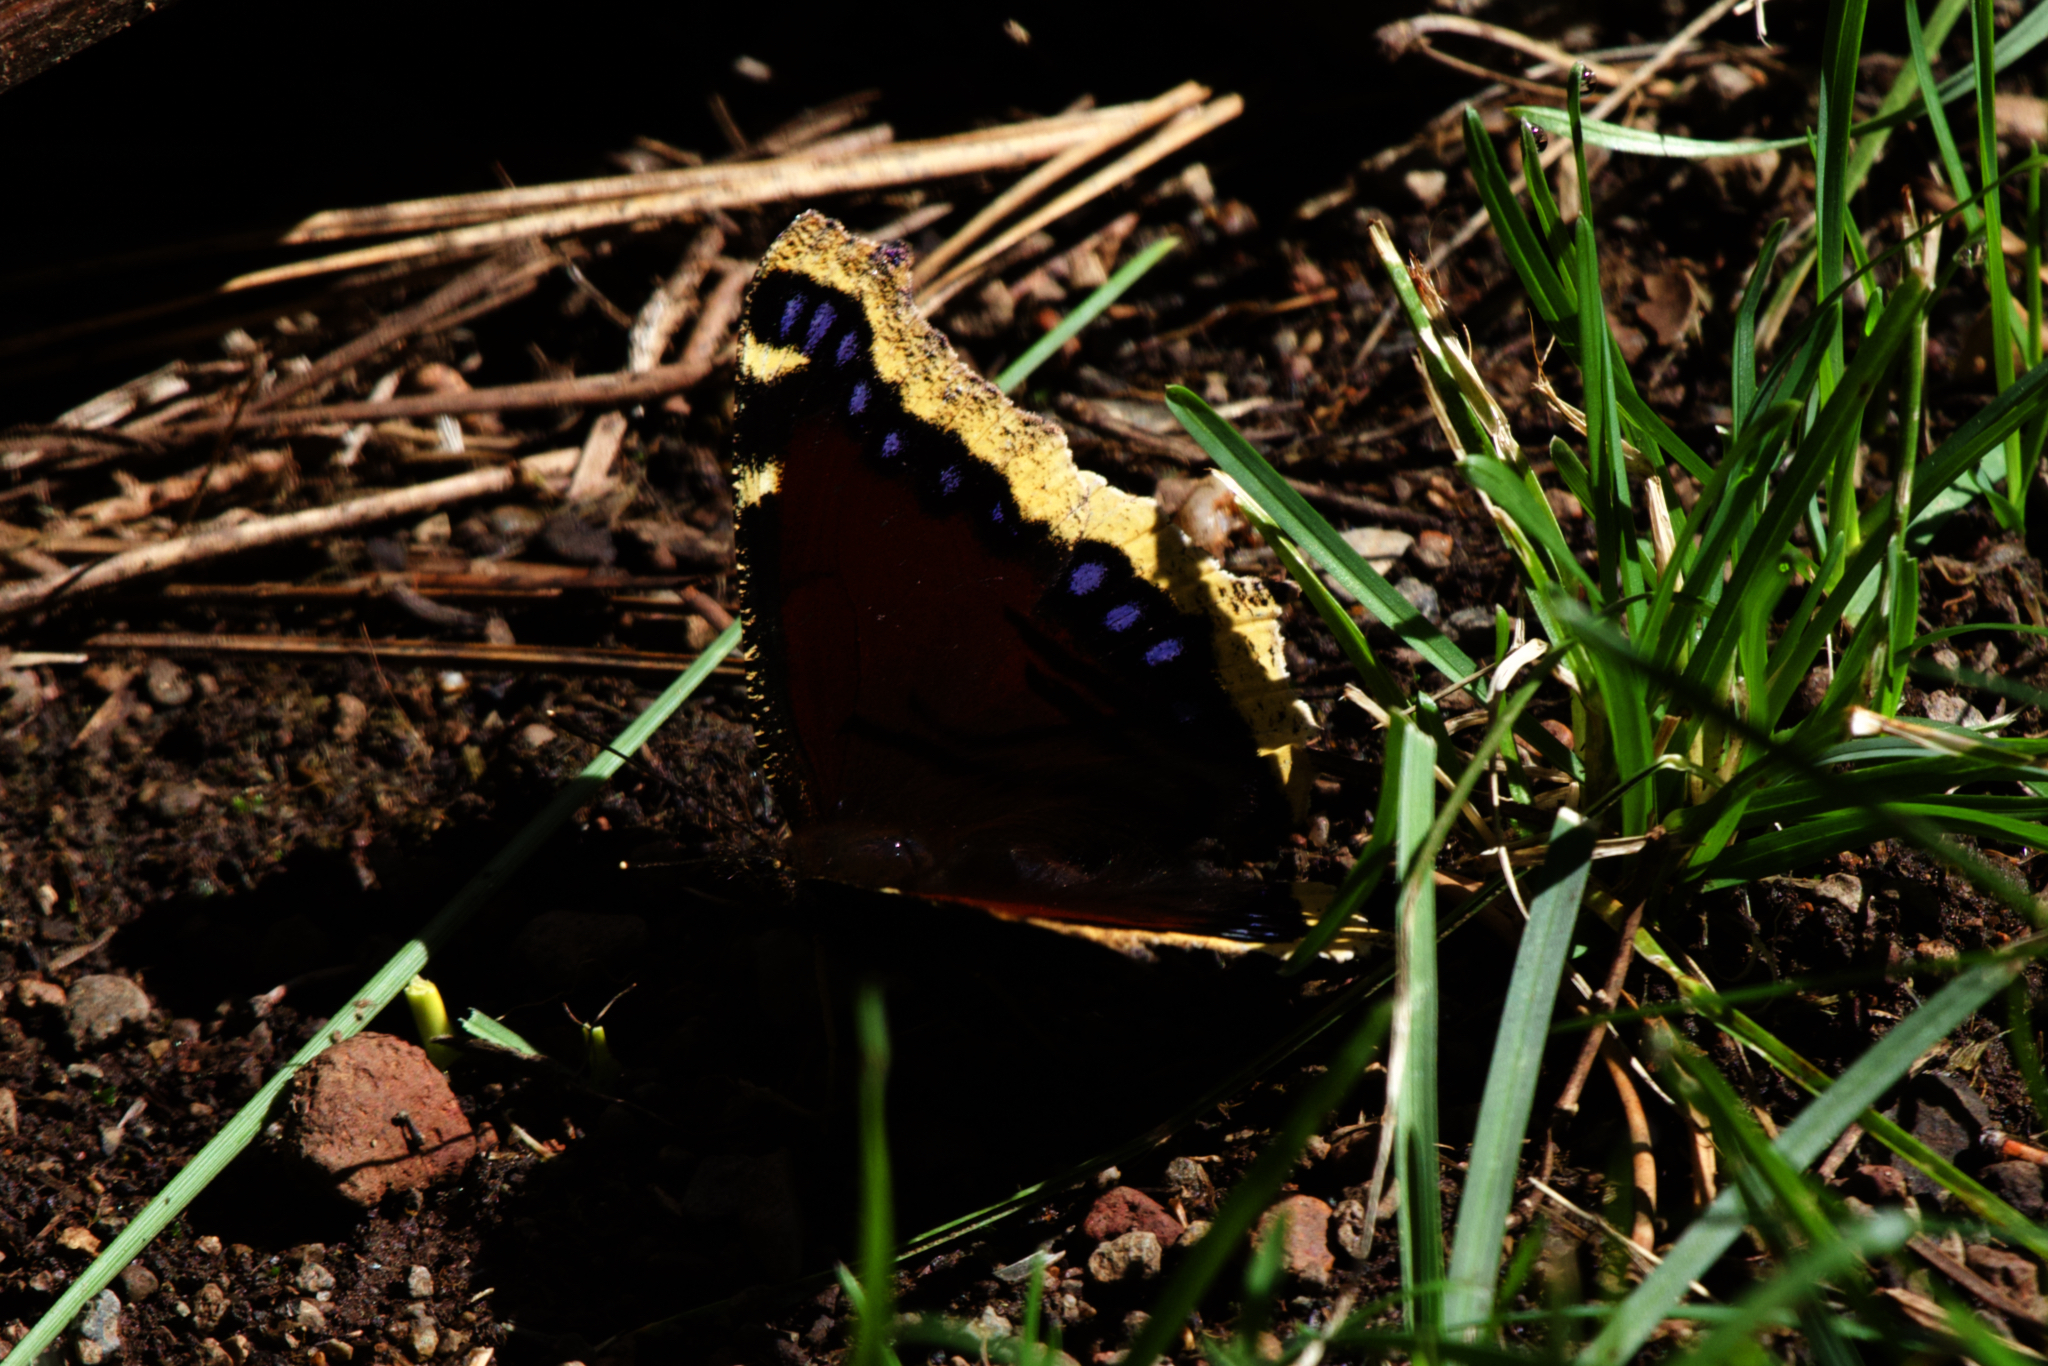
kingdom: Animalia
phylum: Arthropoda
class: Insecta
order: Lepidoptera
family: Nymphalidae
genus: Nymphalis
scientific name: Nymphalis antiopa
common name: Camberwell beauty
